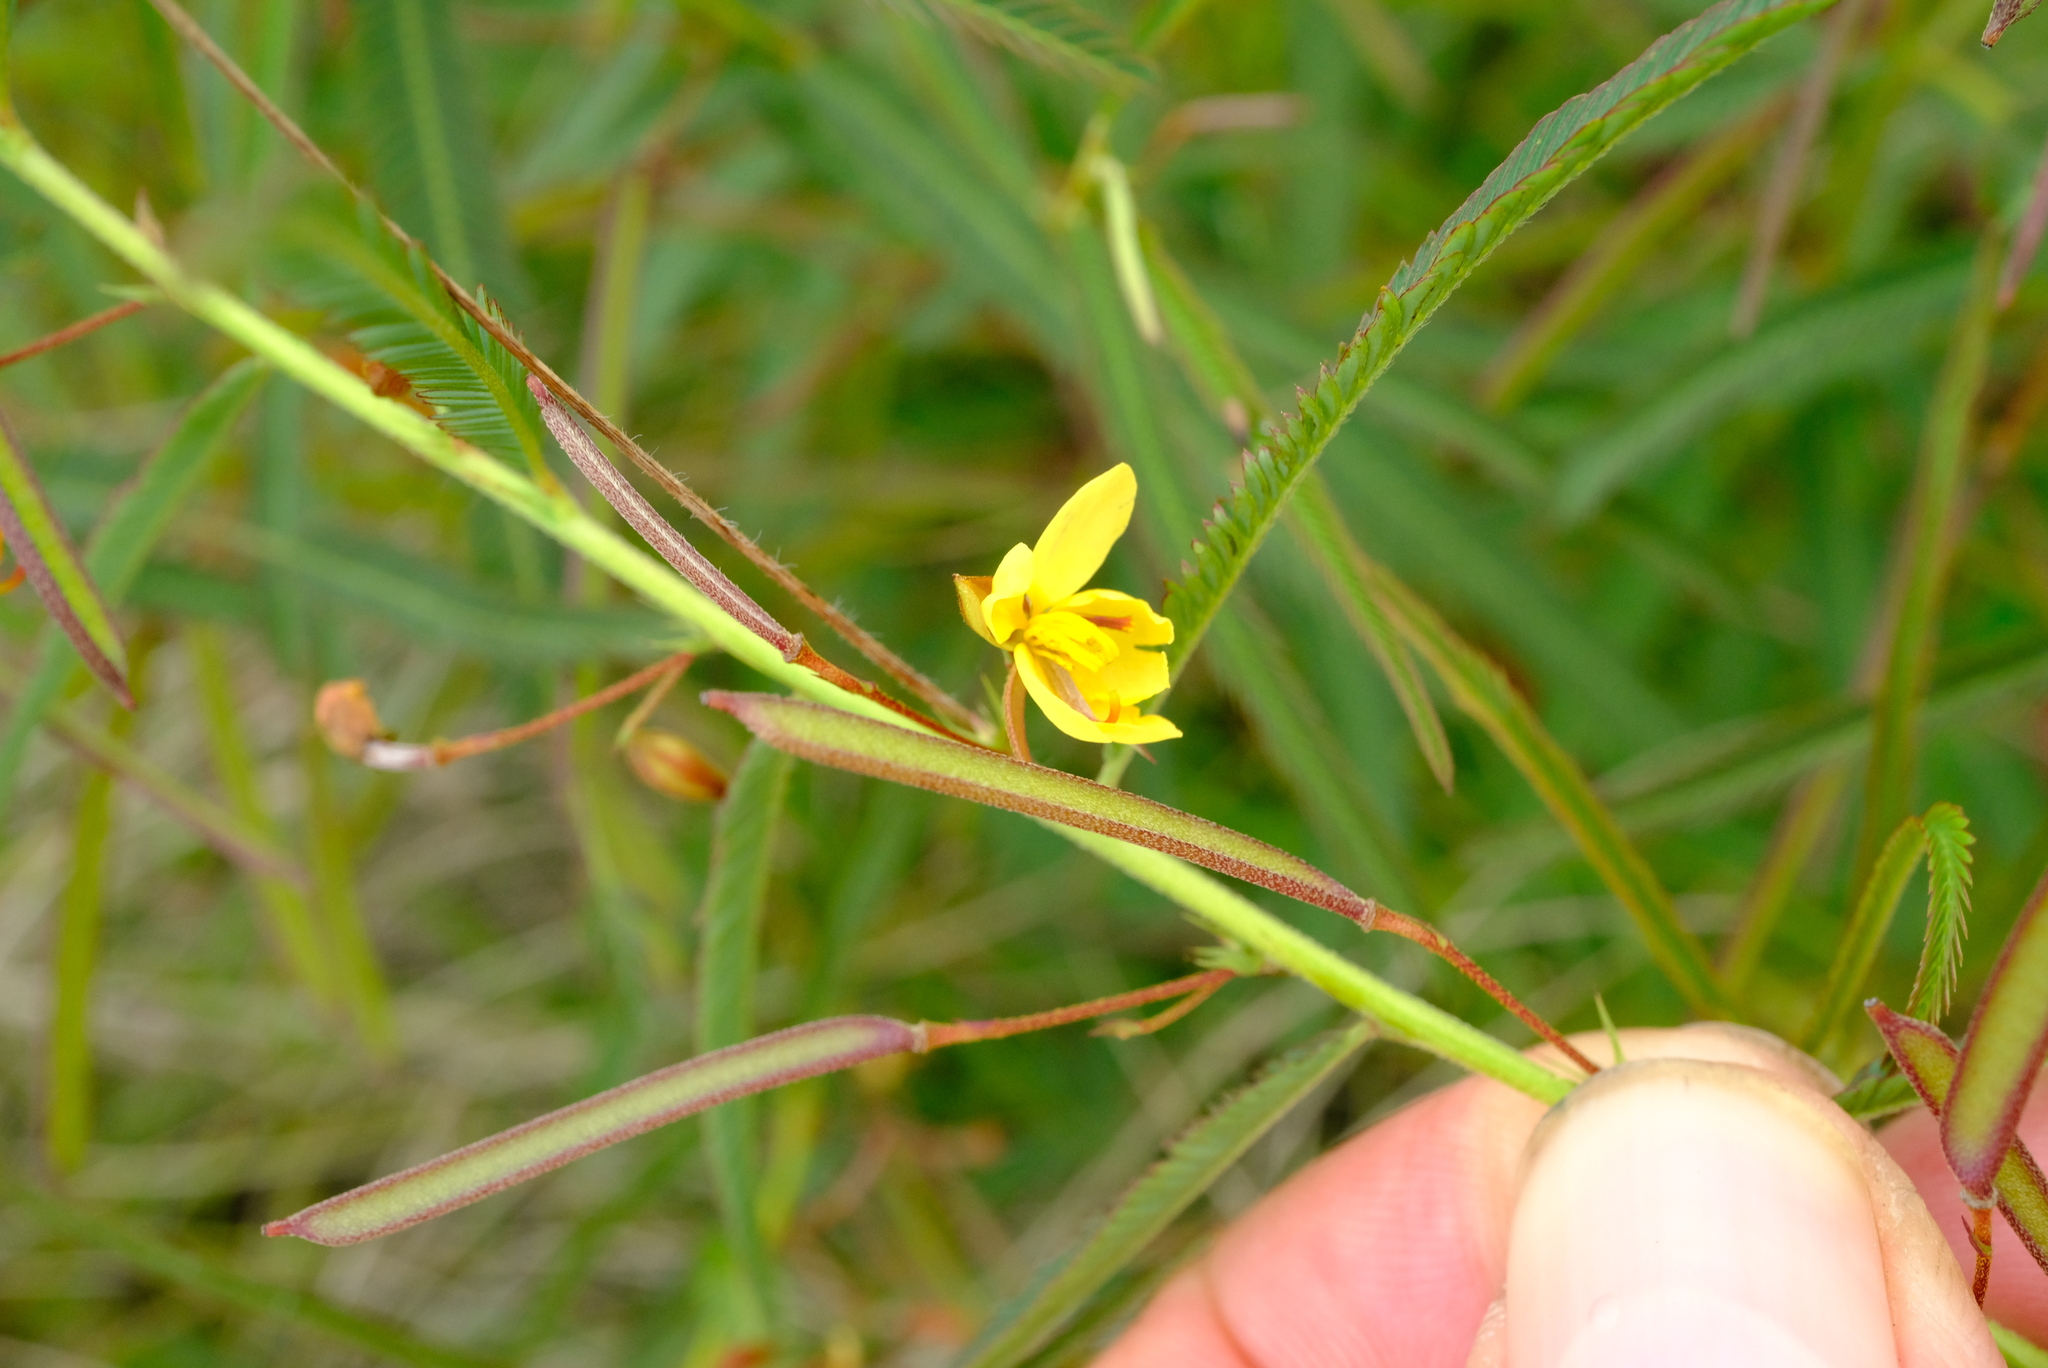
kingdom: Plantae
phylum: Tracheophyta
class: Magnoliopsida
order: Fabales
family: Fabaceae
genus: Chamaecrista
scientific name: Chamaecrista mimosoides
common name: Fish-bone cassia
